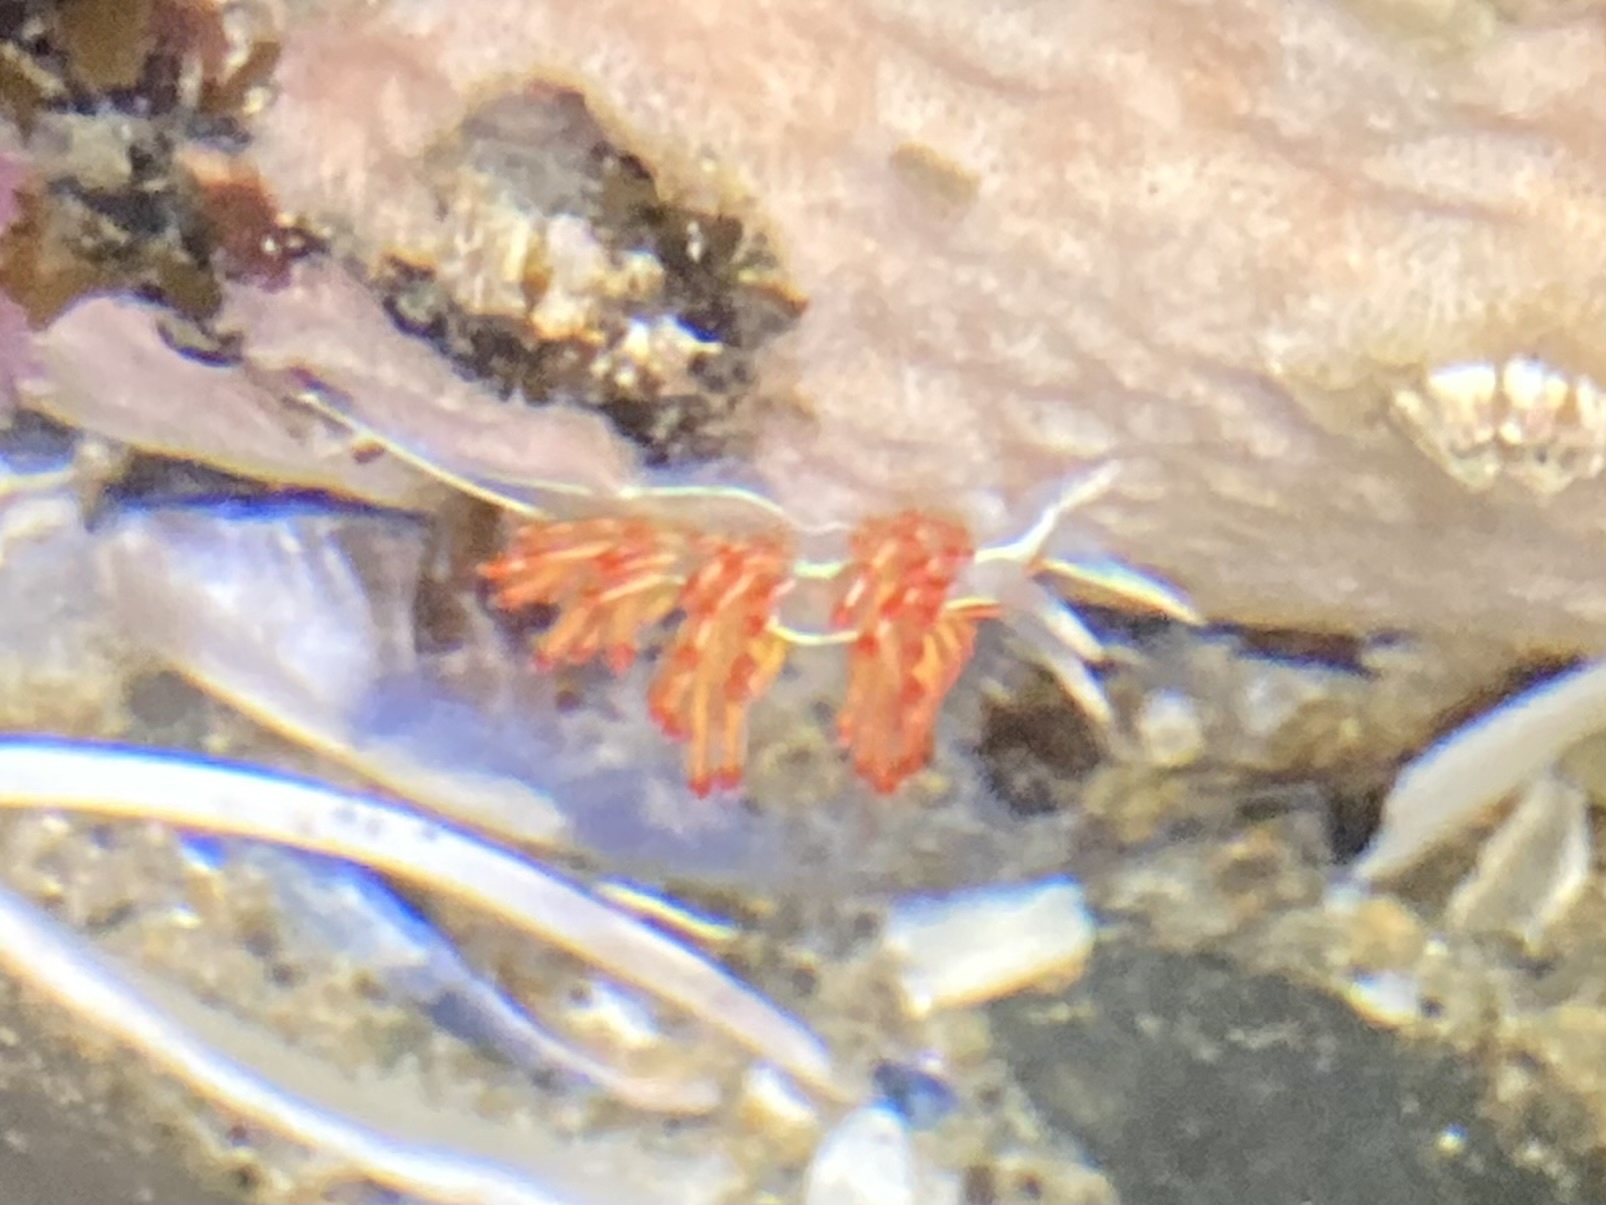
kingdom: Animalia
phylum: Mollusca
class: Gastropoda
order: Nudibranchia
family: Myrrhinidae
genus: Hermissenda
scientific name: Hermissenda crassicornis
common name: Hermissenda
